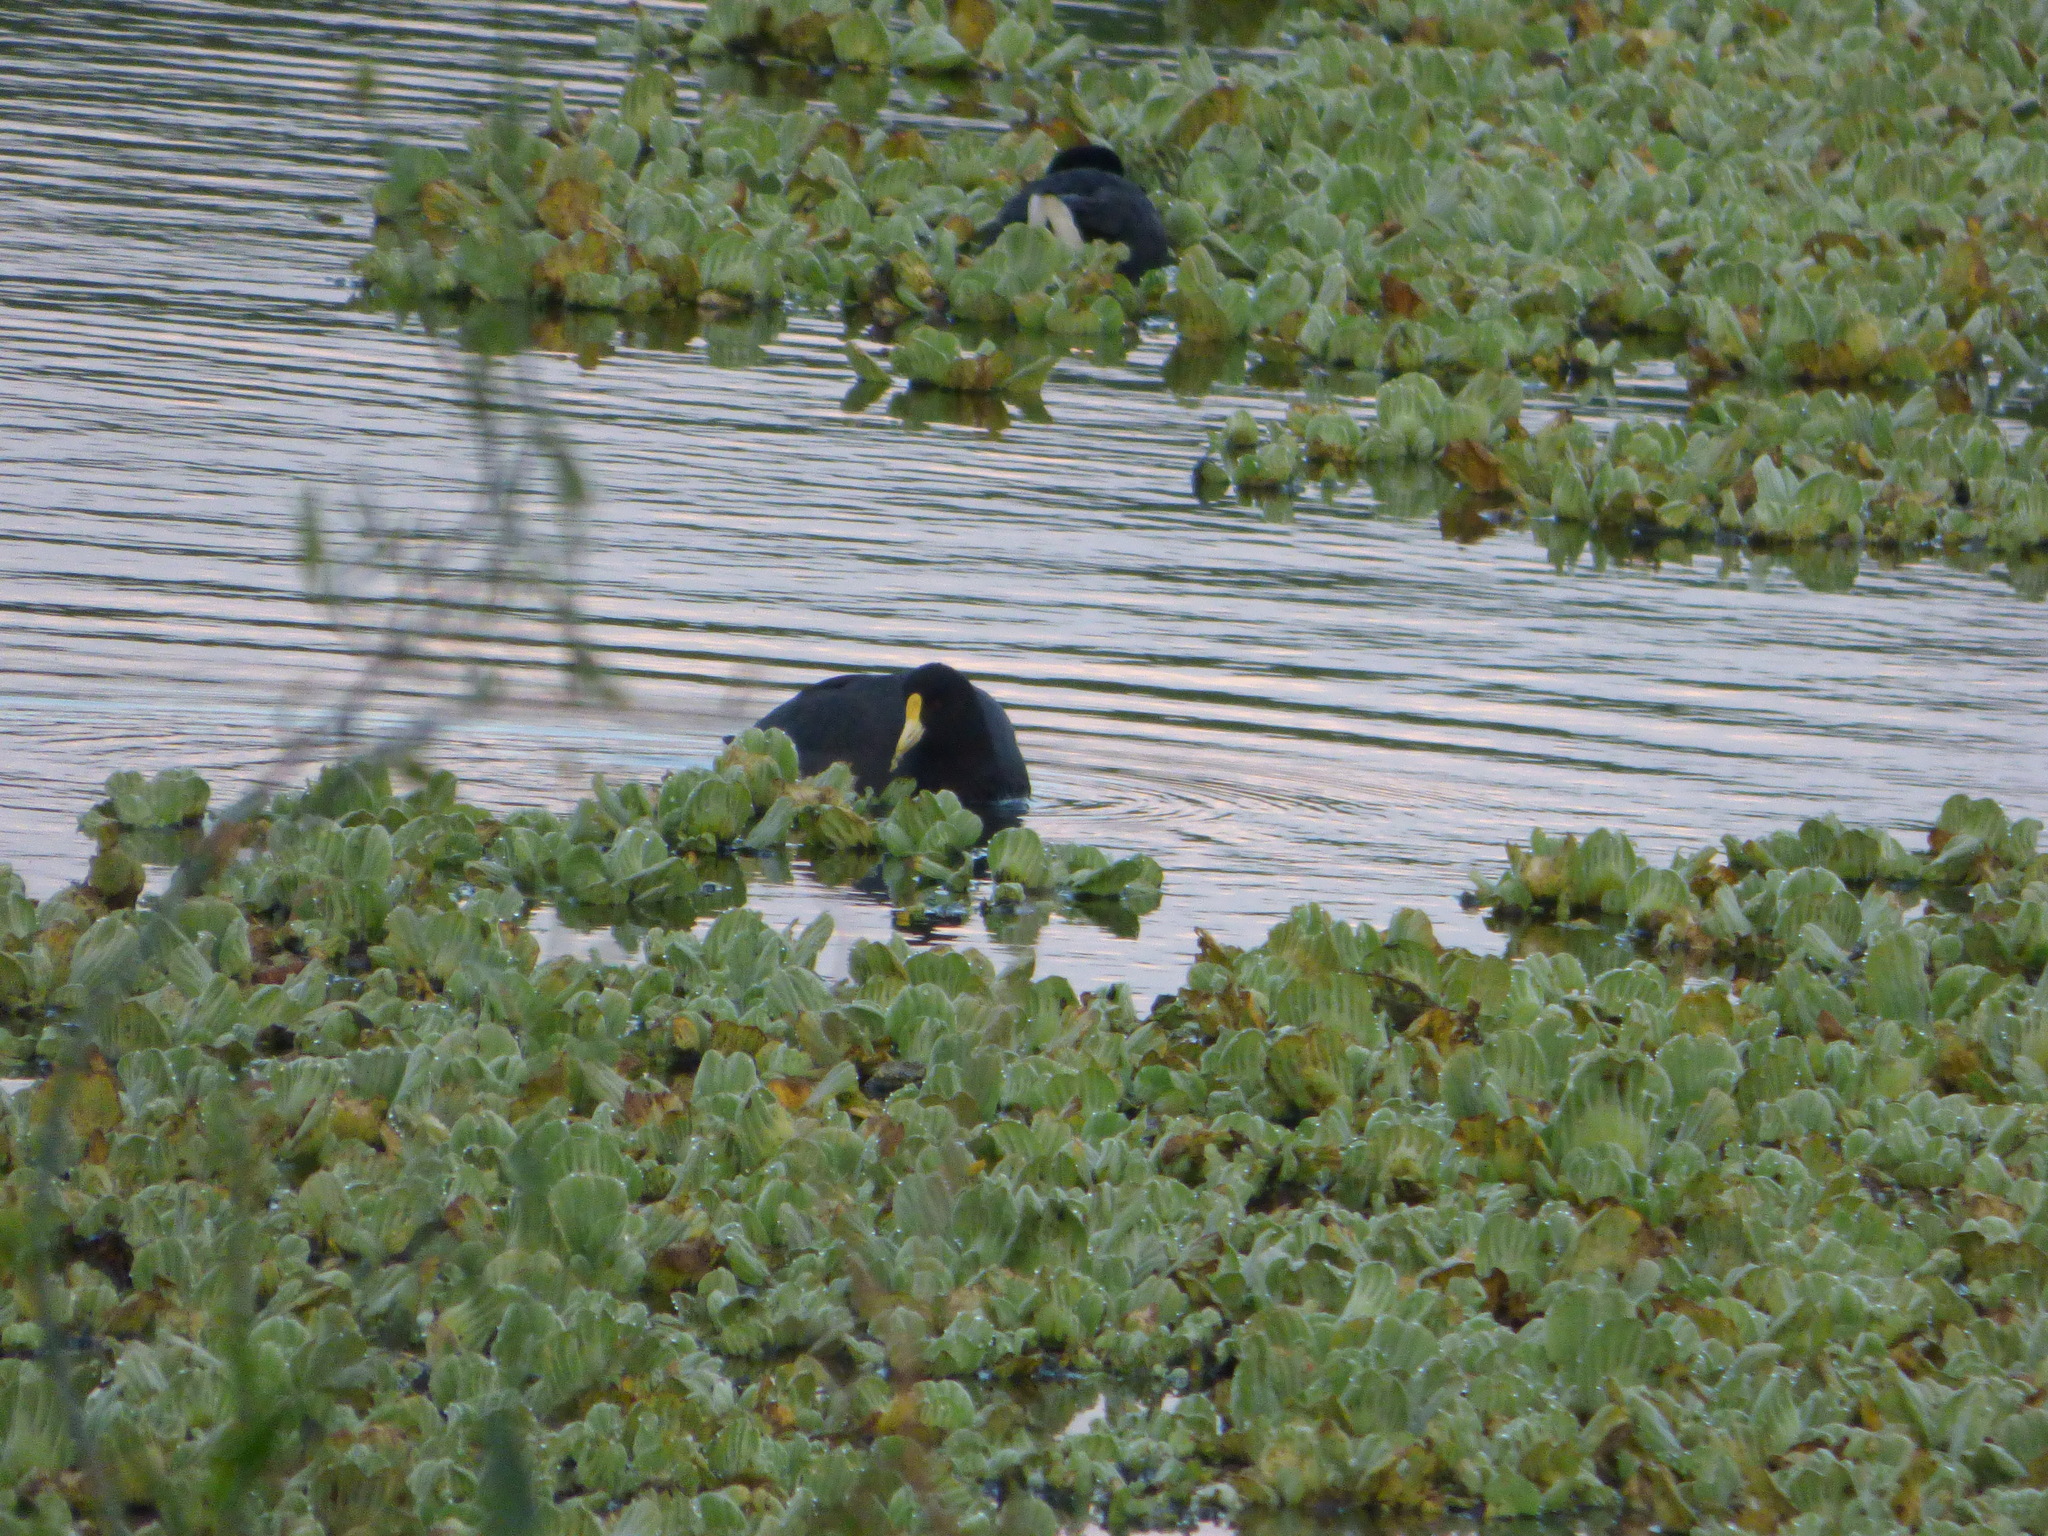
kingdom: Animalia
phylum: Chordata
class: Aves
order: Gruiformes
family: Rallidae
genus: Fulica
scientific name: Fulica leucoptera
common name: White-winged coot
